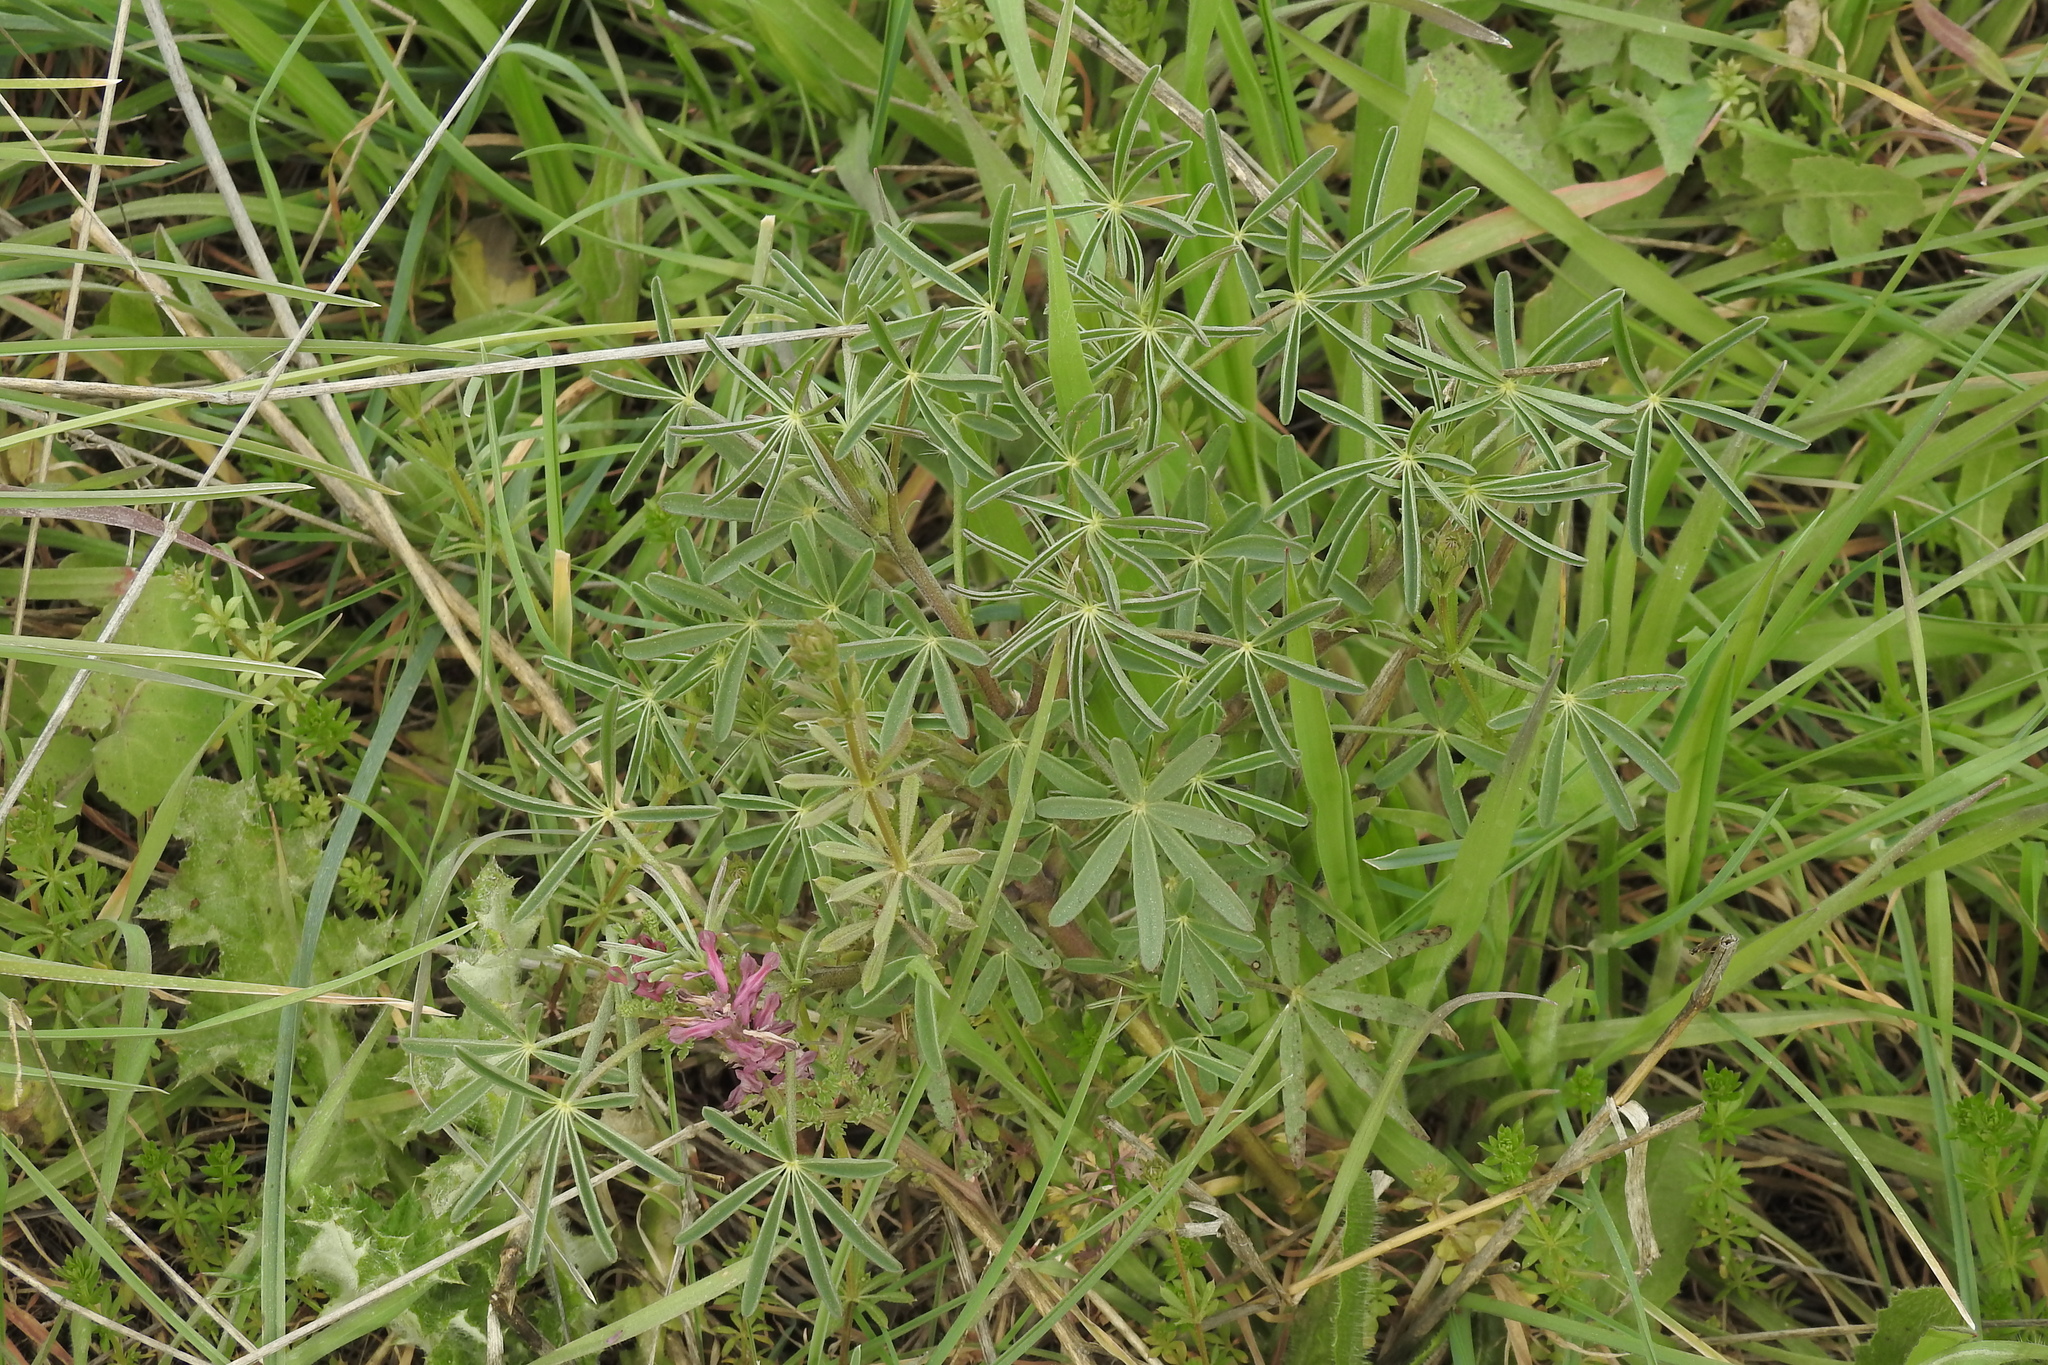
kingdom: Plantae
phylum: Tracheophyta
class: Magnoliopsida
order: Fabales
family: Fabaceae
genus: Lupinus
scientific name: Lupinus angustifolius
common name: Narrow-leaved lupin
